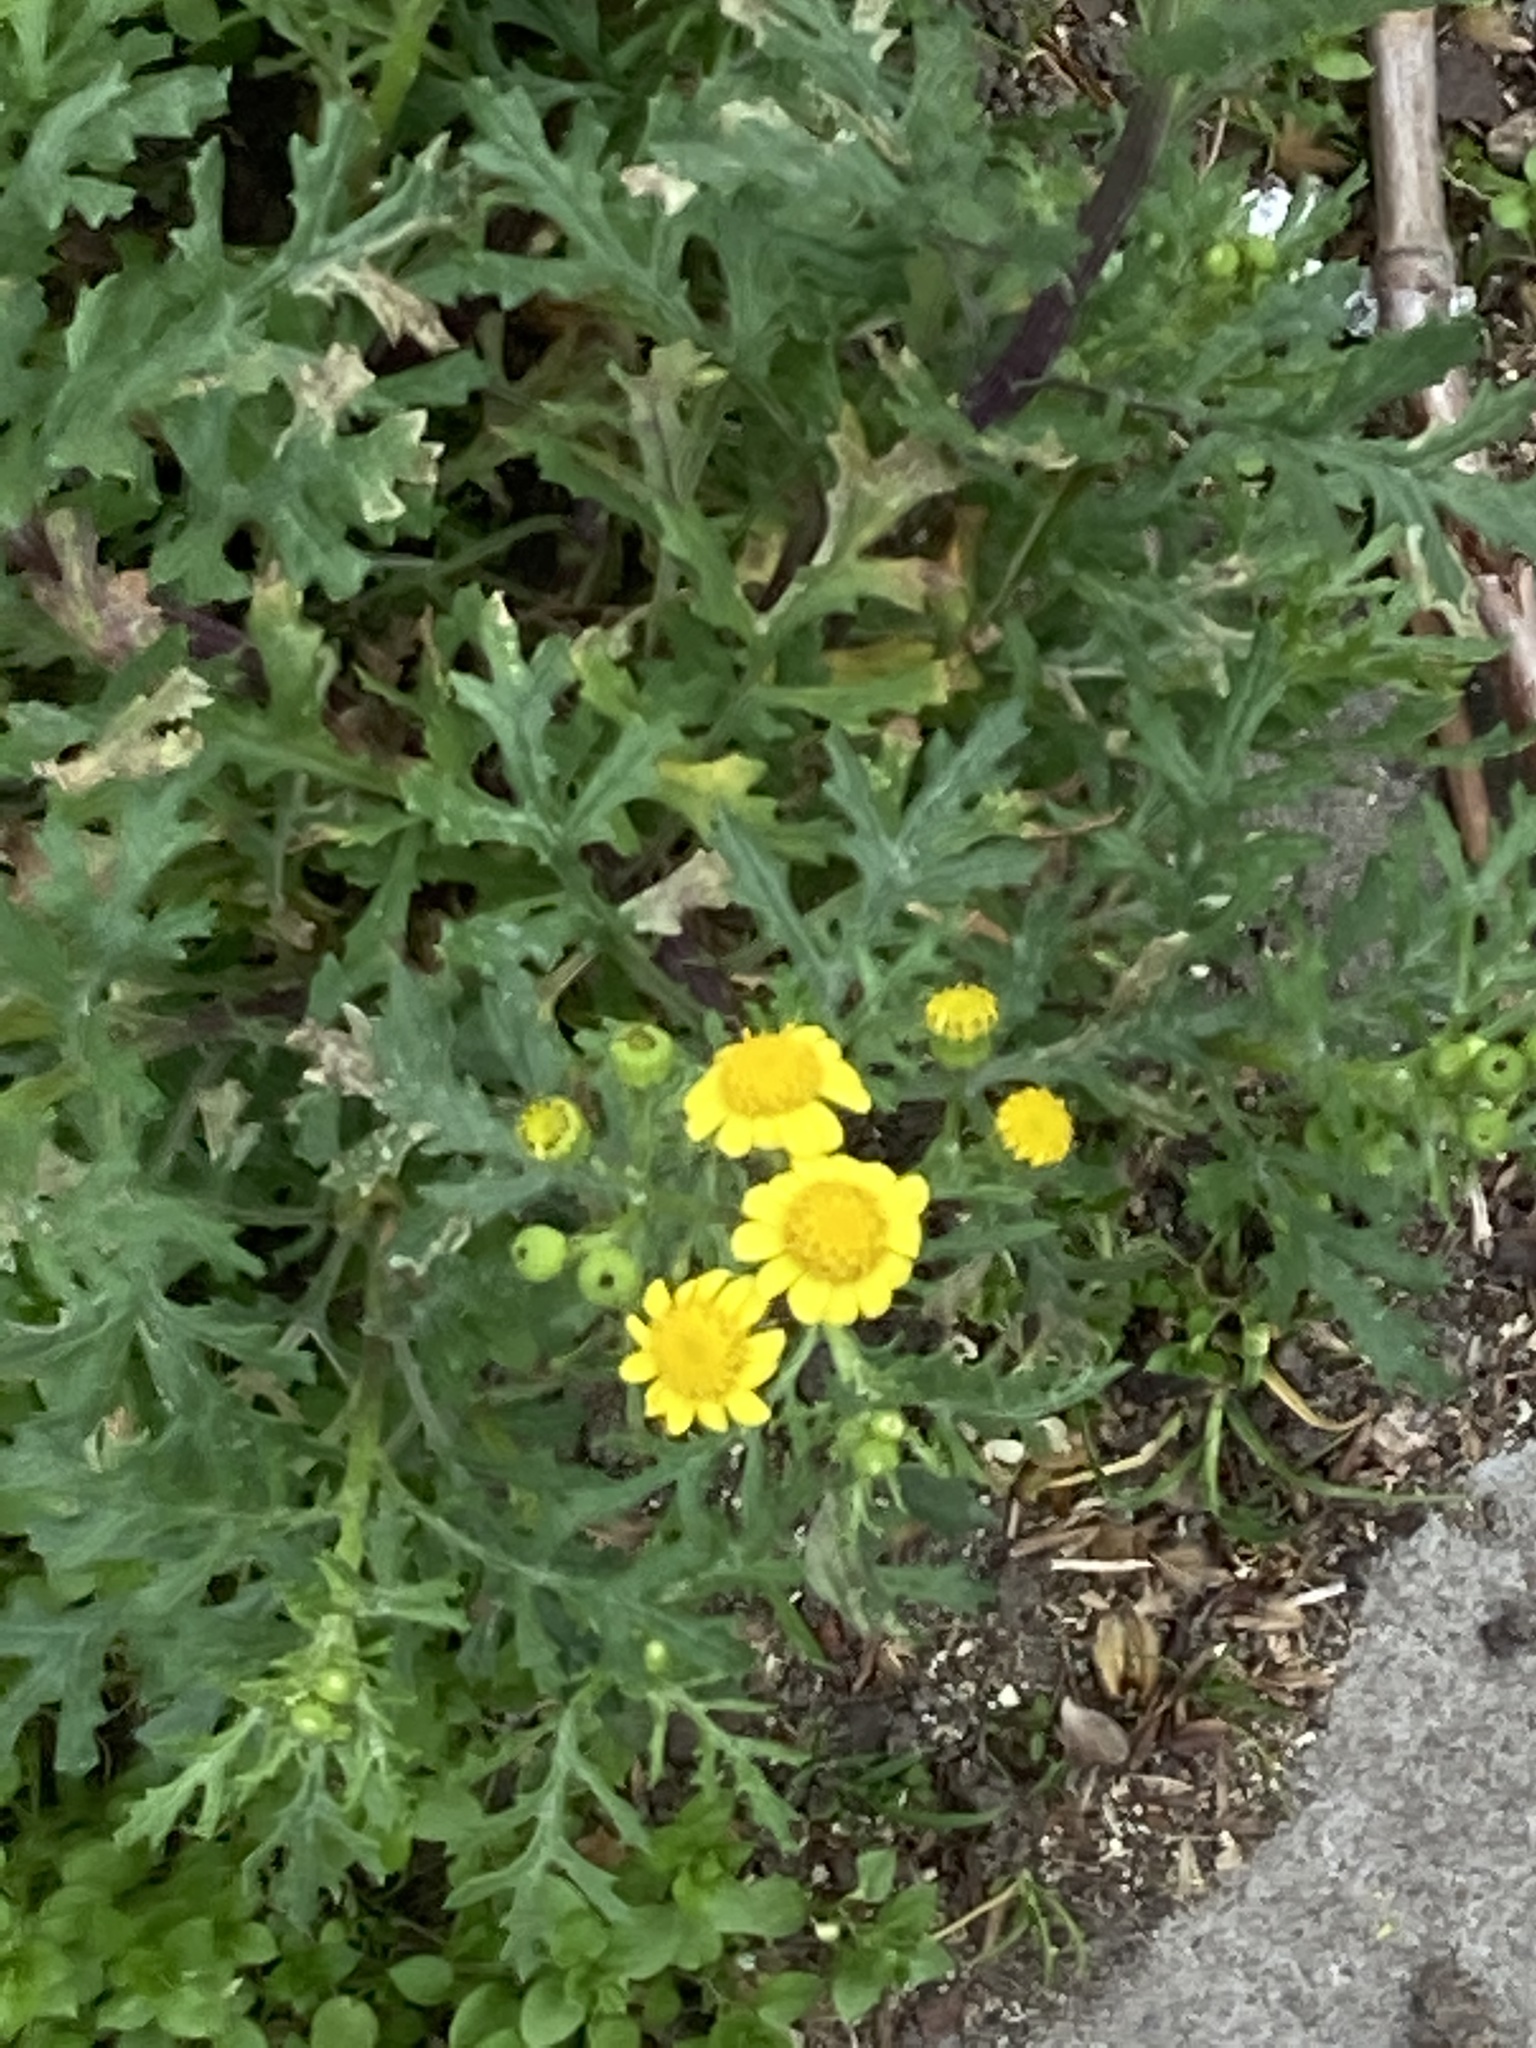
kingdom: Plantae
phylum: Tracheophyta
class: Magnoliopsida
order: Asterales
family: Asteraceae
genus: Senecio
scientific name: Senecio squalidus
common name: Oxford ragwort
